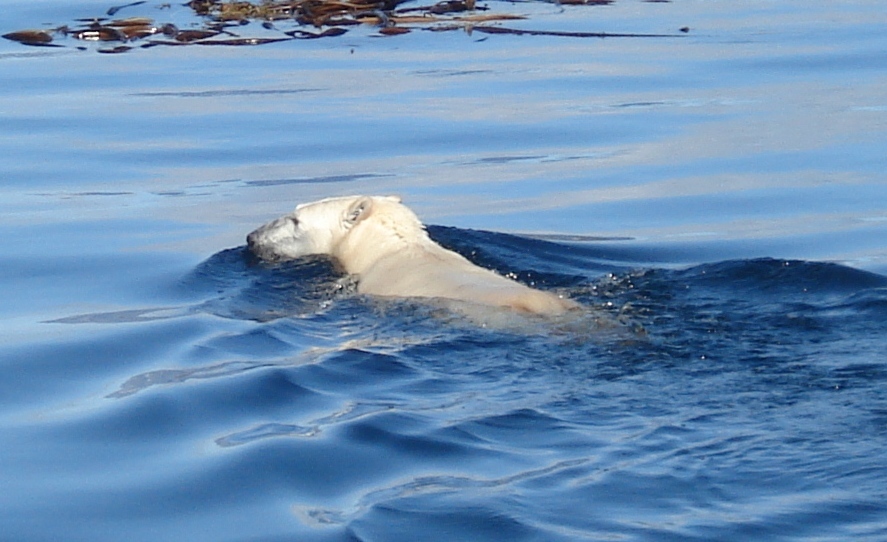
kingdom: Animalia
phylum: Chordata
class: Mammalia
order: Carnivora
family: Ursidae
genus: Ursus
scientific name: Ursus maritimus
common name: Polar bear
